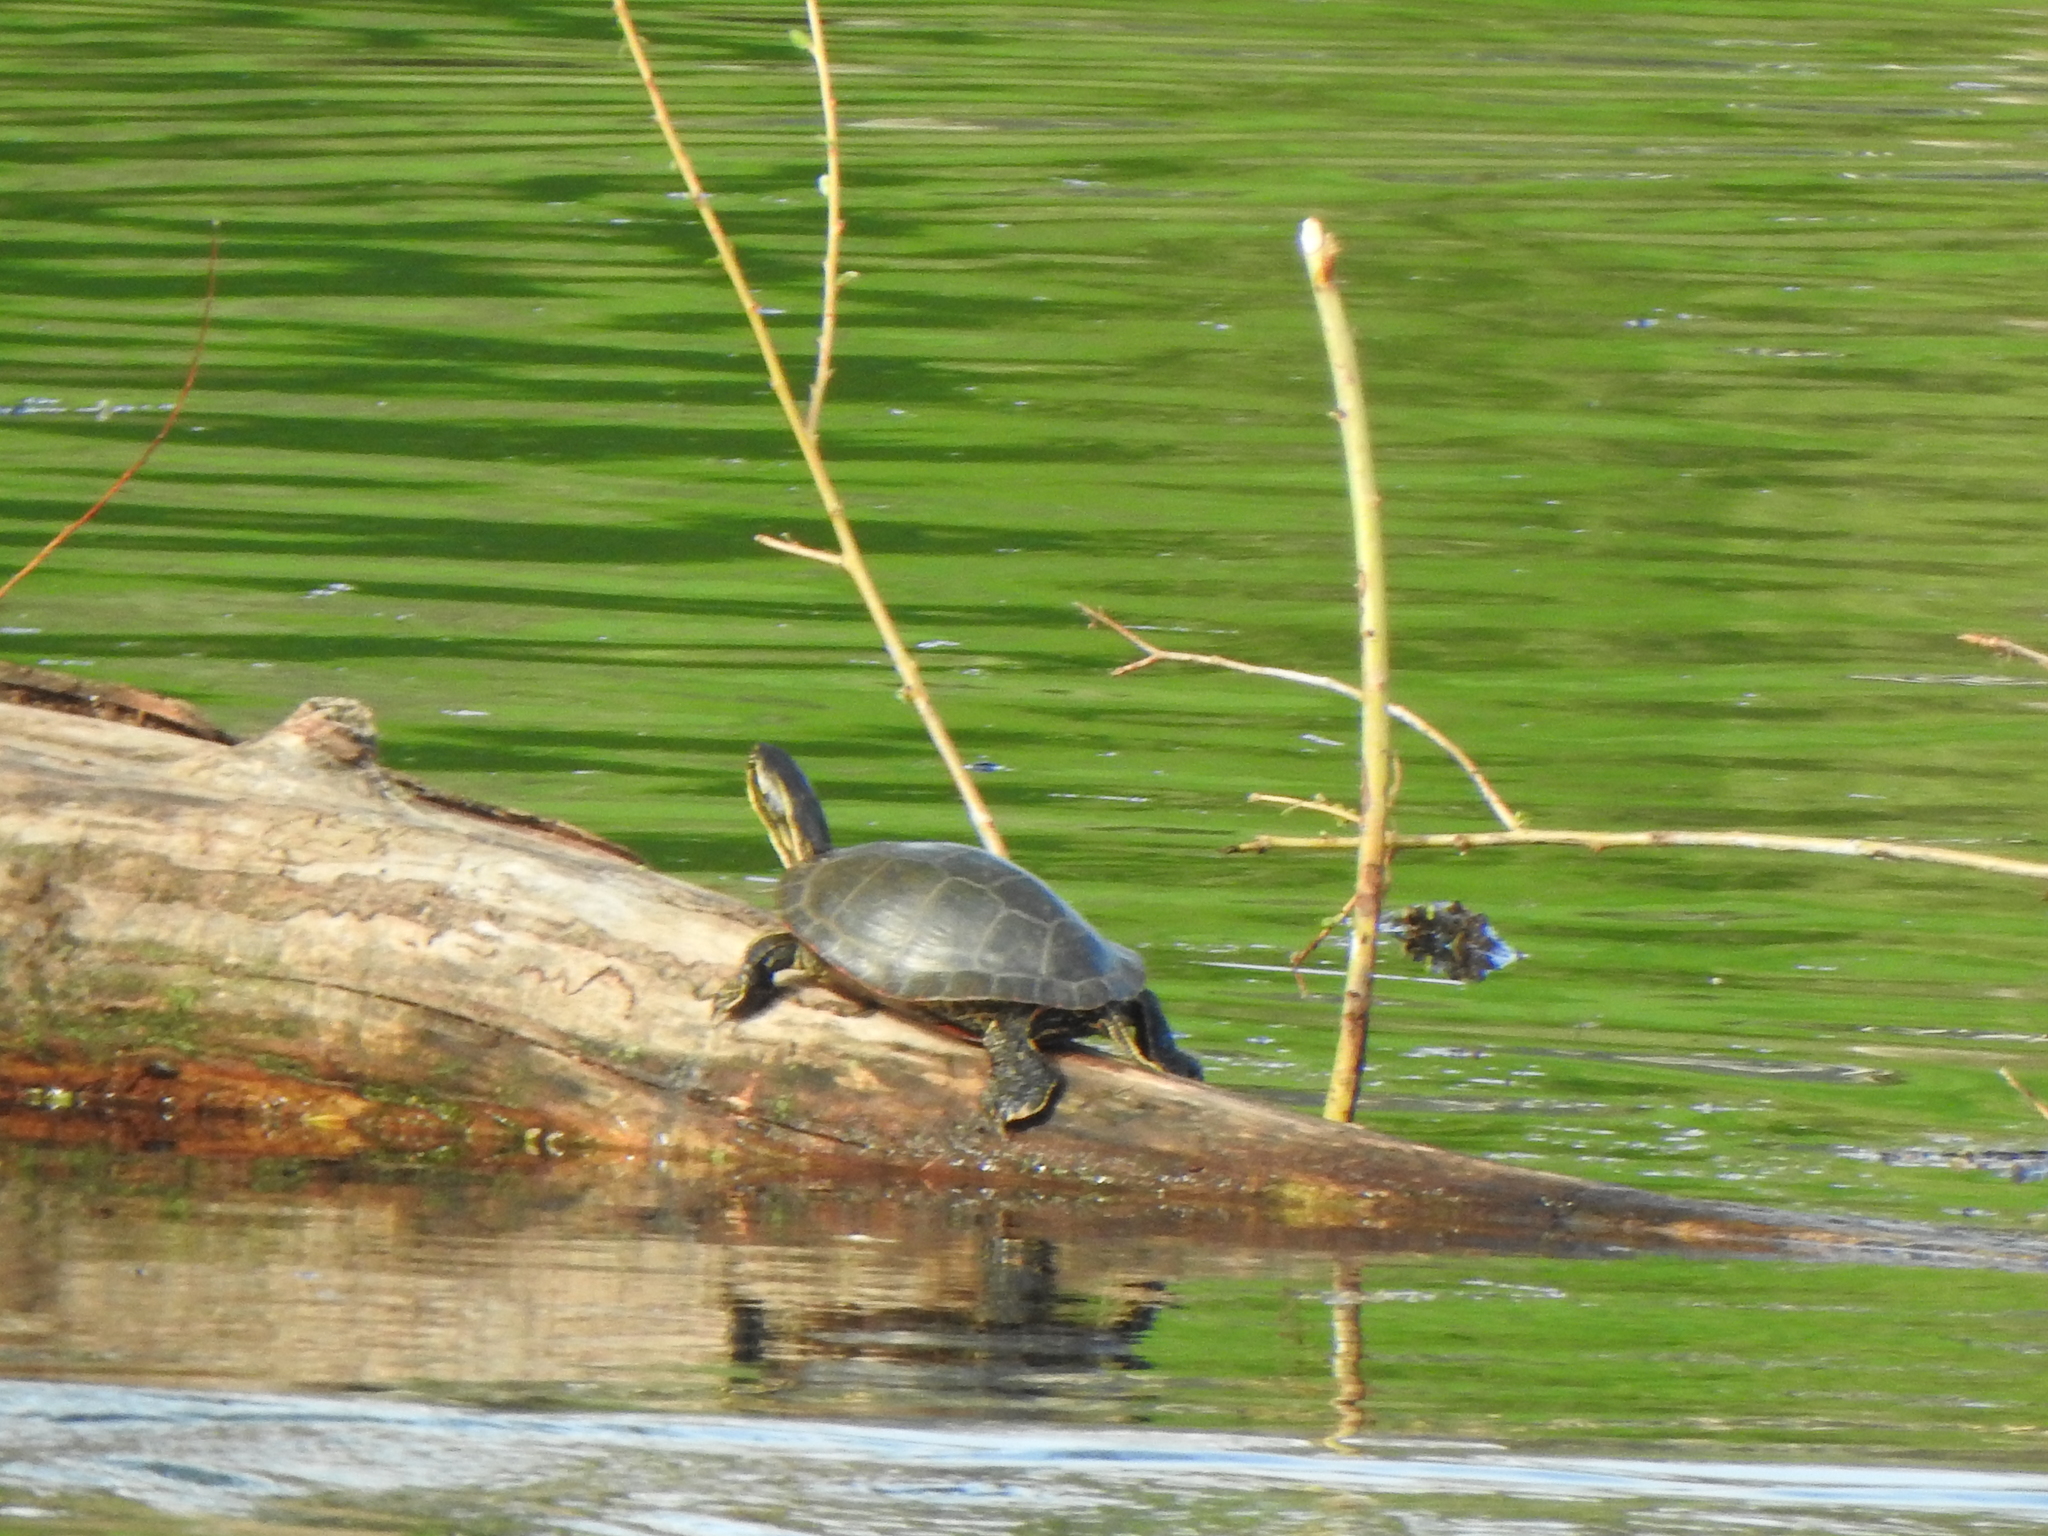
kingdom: Animalia
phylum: Chordata
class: Testudines
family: Emydidae
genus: Chrysemys
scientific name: Chrysemys picta
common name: Painted turtle
